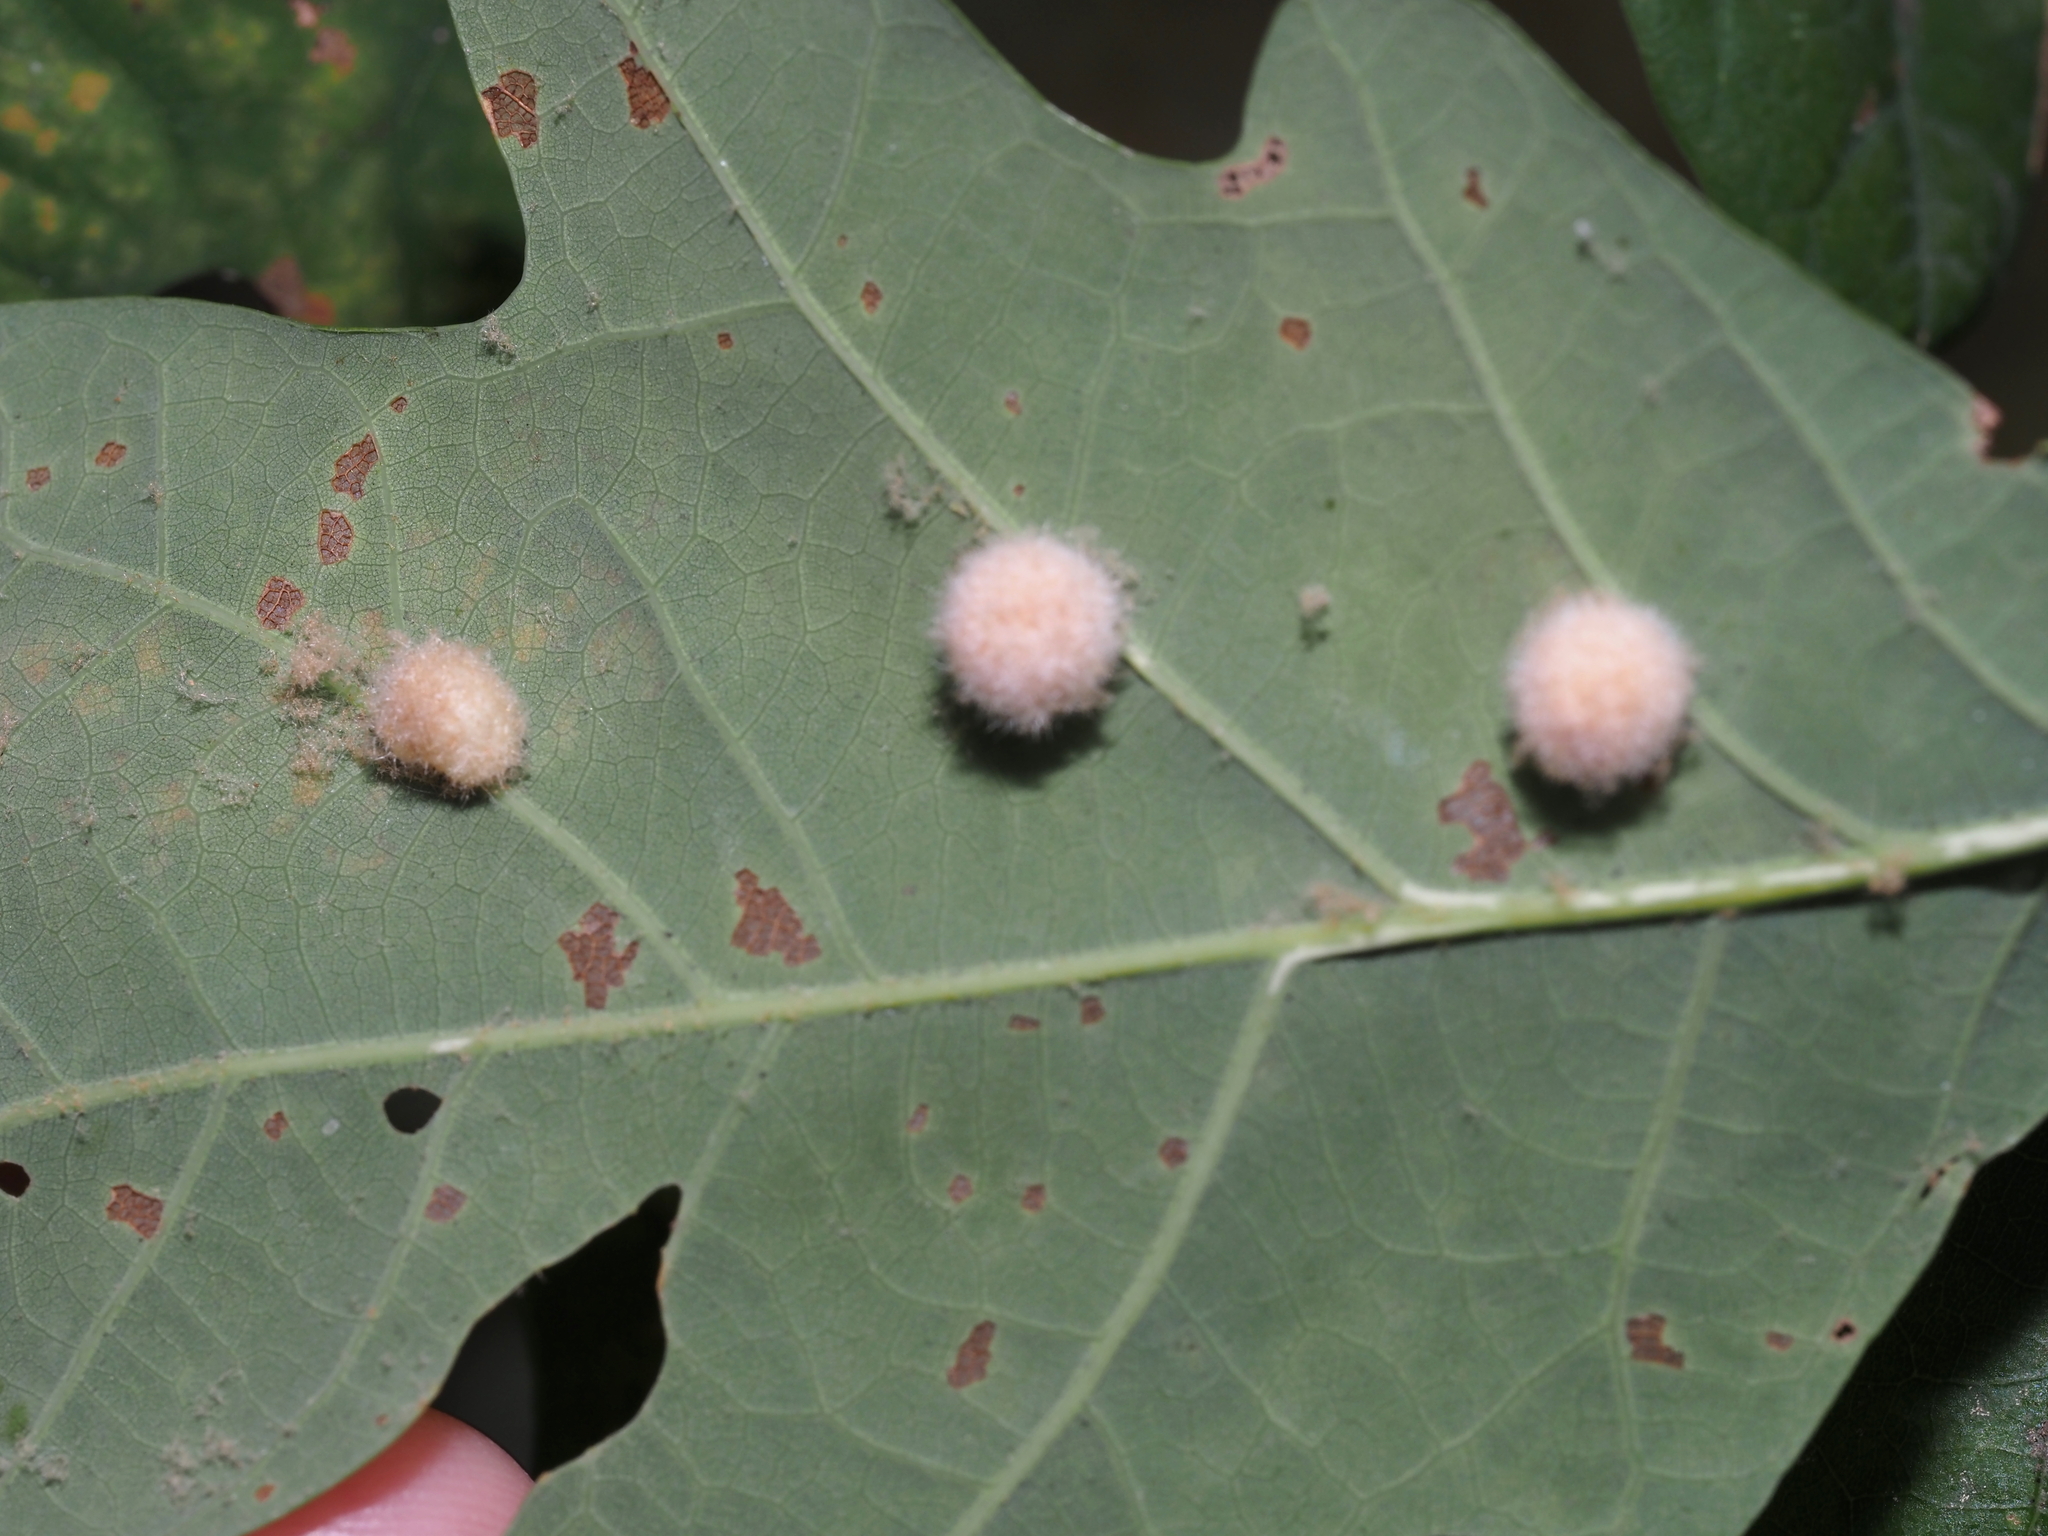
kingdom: Animalia
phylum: Arthropoda
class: Insecta
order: Hymenoptera
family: Cynipidae
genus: Philonix
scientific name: Philonix fulvicollis
